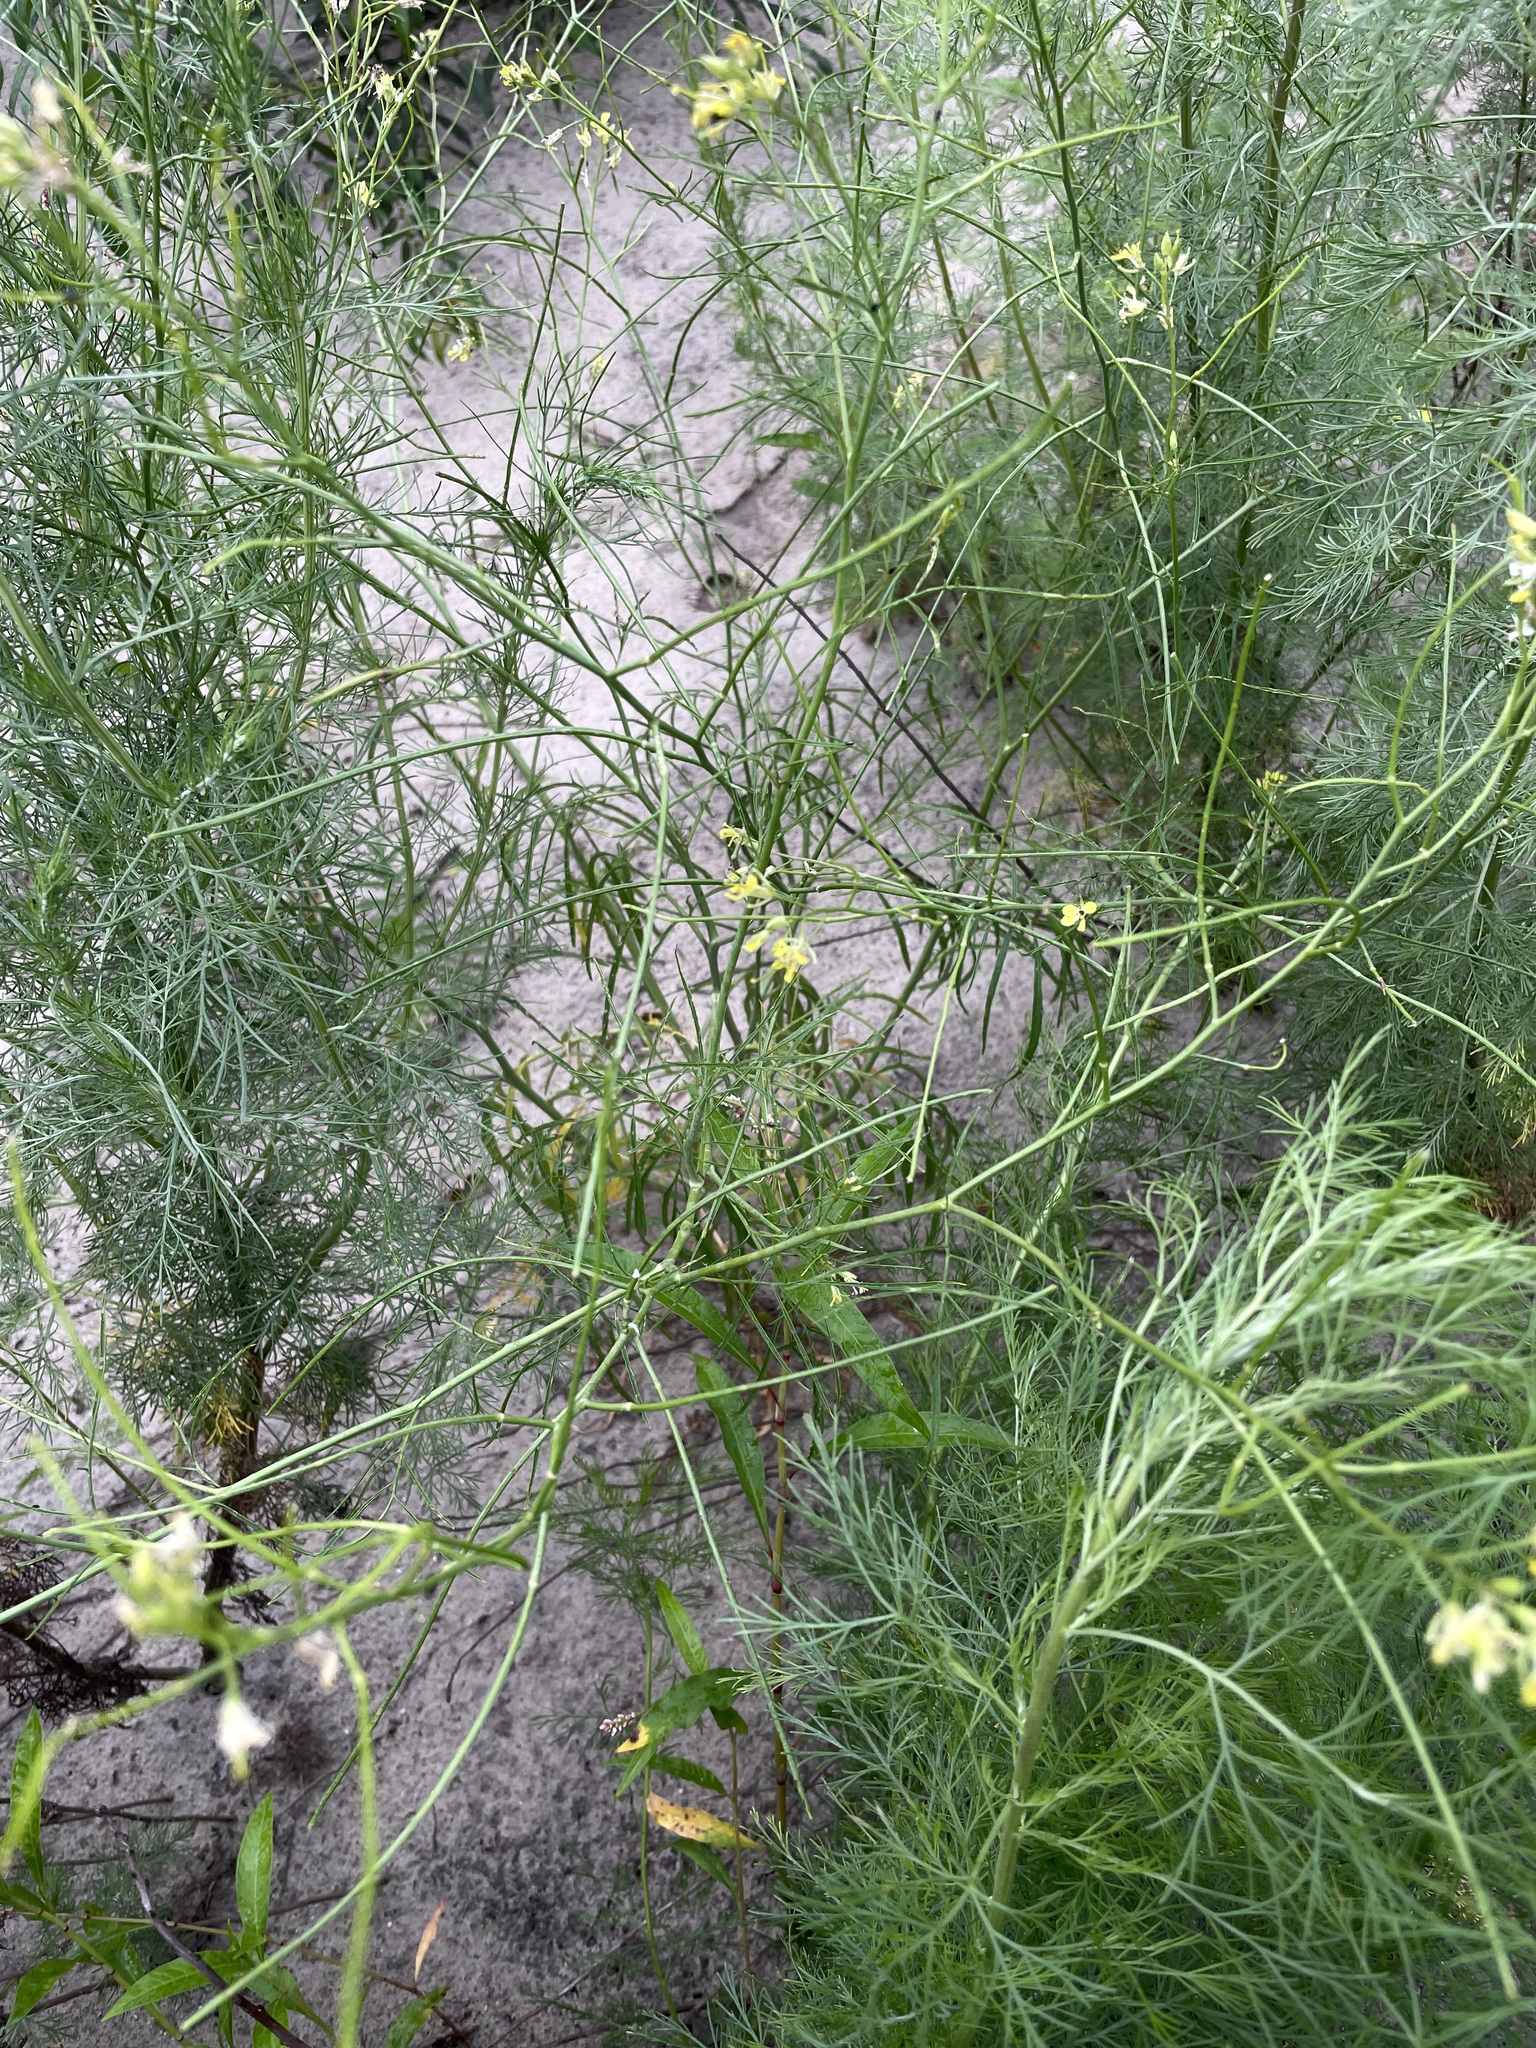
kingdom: Plantae
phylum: Tracheophyta
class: Magnoliopsida
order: Brassicales
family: Brassicaceae
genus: Sisymbrium
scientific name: Sisymbrium altissimum
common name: Tall rocket
